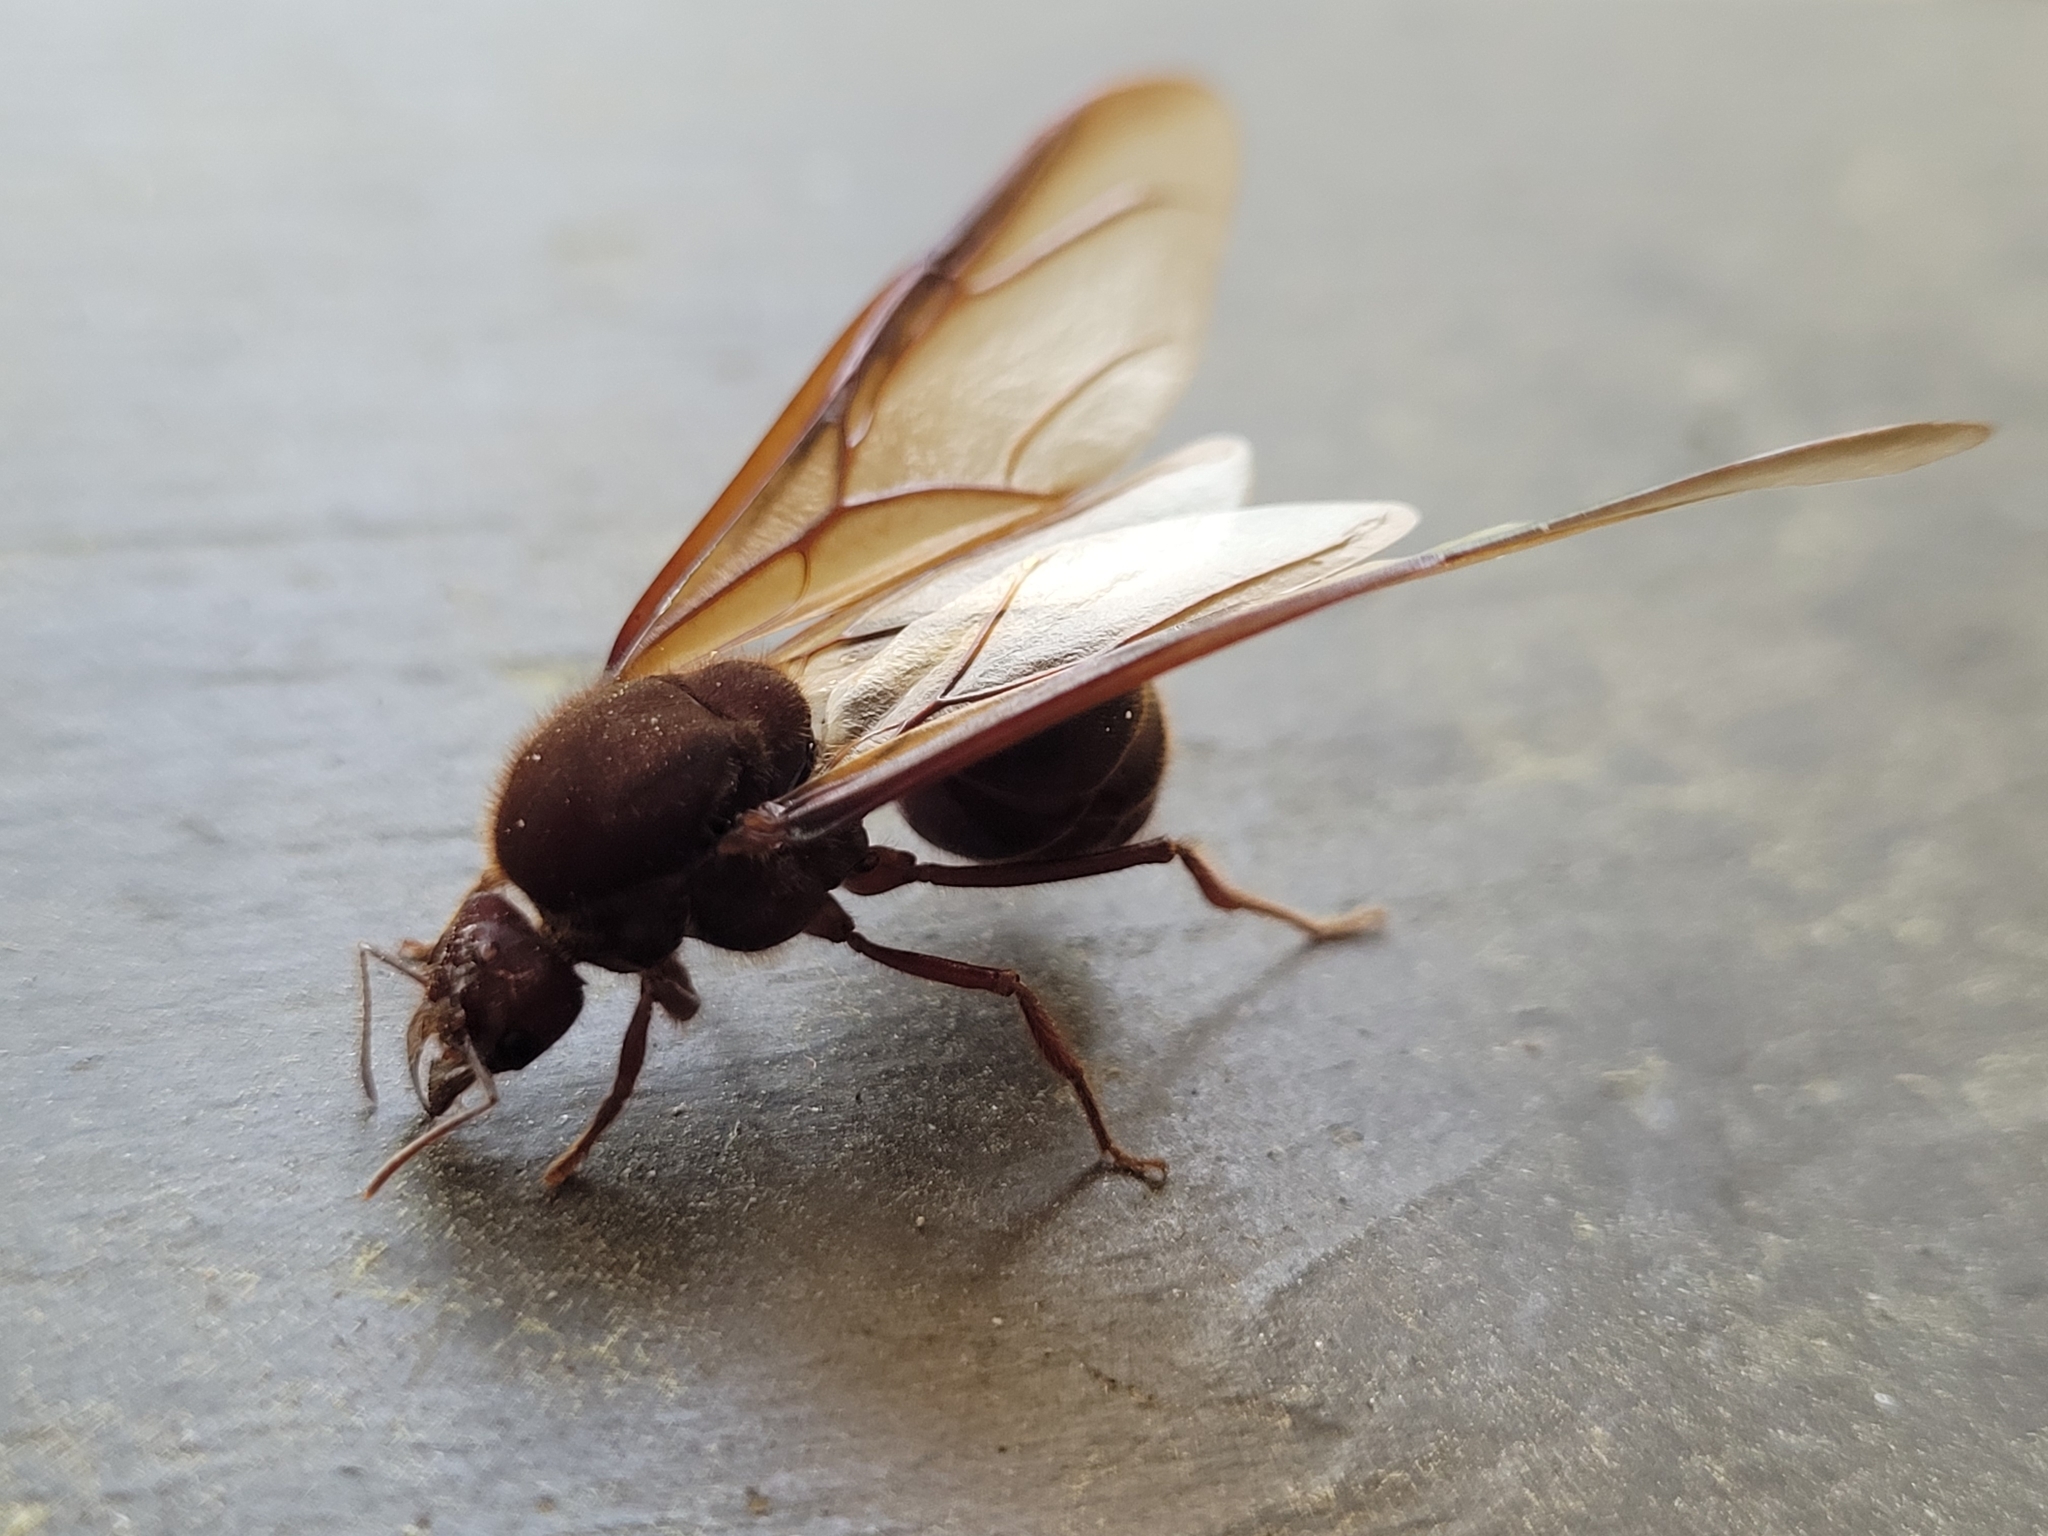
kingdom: Animalia
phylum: Arthropoda
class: Insecta
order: Hymenoptera
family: Formicidae
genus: Atta
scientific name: Atta texana
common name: Texas leafcutting ant
